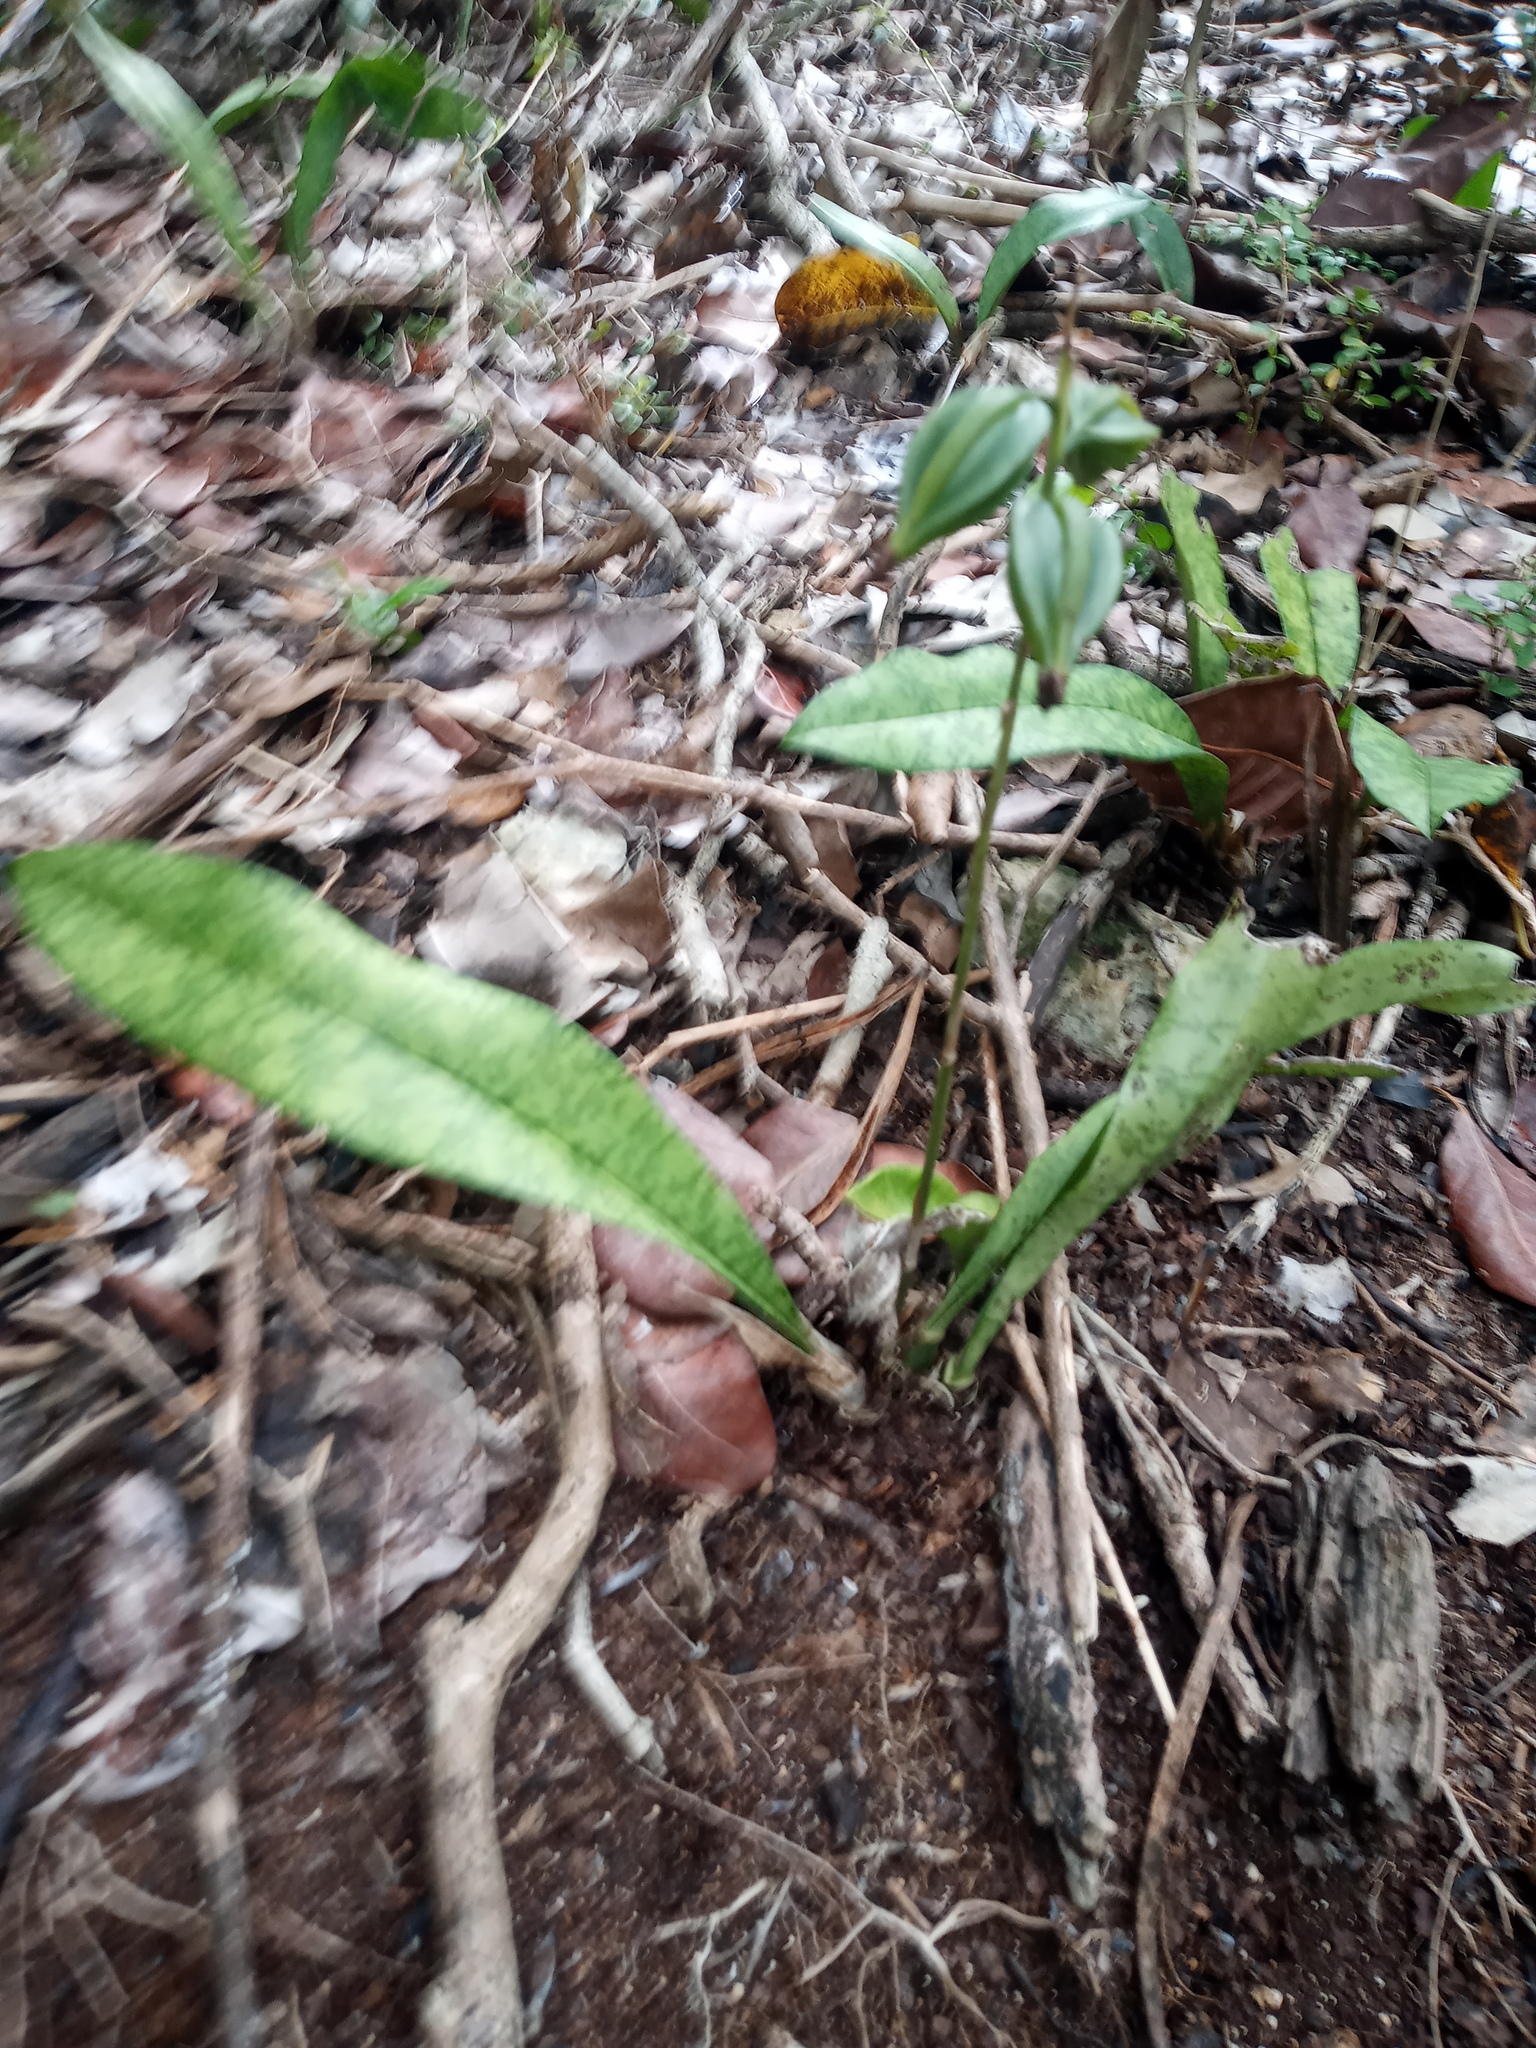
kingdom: Plantae
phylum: Tracheophyta
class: Liliopsida
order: Asparagales
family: Orchidaceae
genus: Eulophia
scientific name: Eulophia maculata
